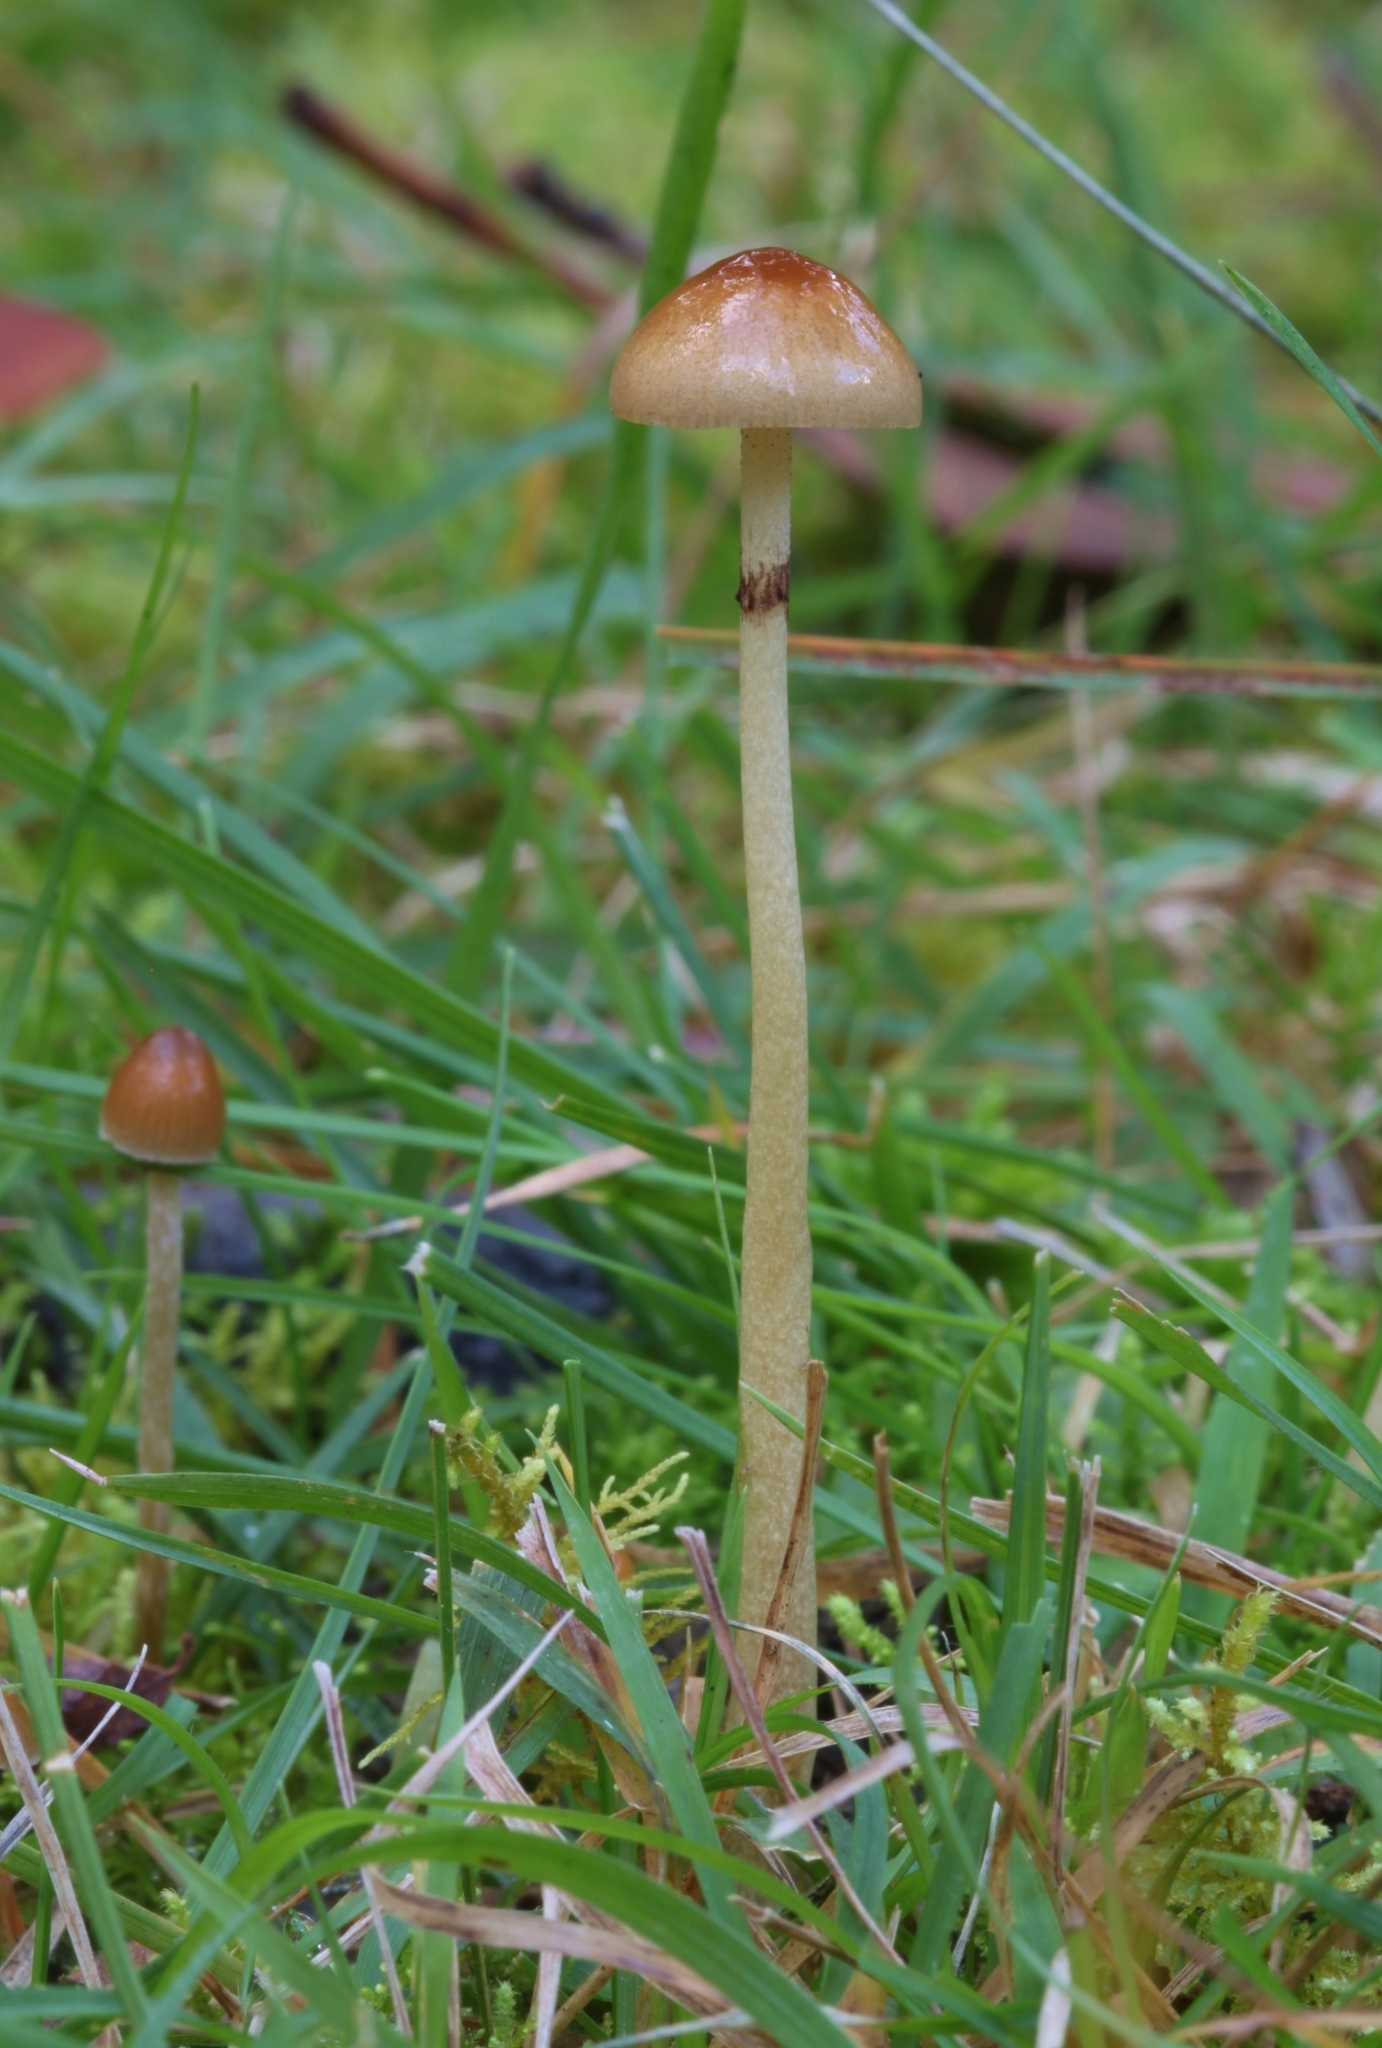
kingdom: Fungi
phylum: Basidiomycota
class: Agaricomycetes
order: Agaricales
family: Strophariaceae
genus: Protostropharia
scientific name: Protostropharia semiglobata
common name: Dung roundhead
